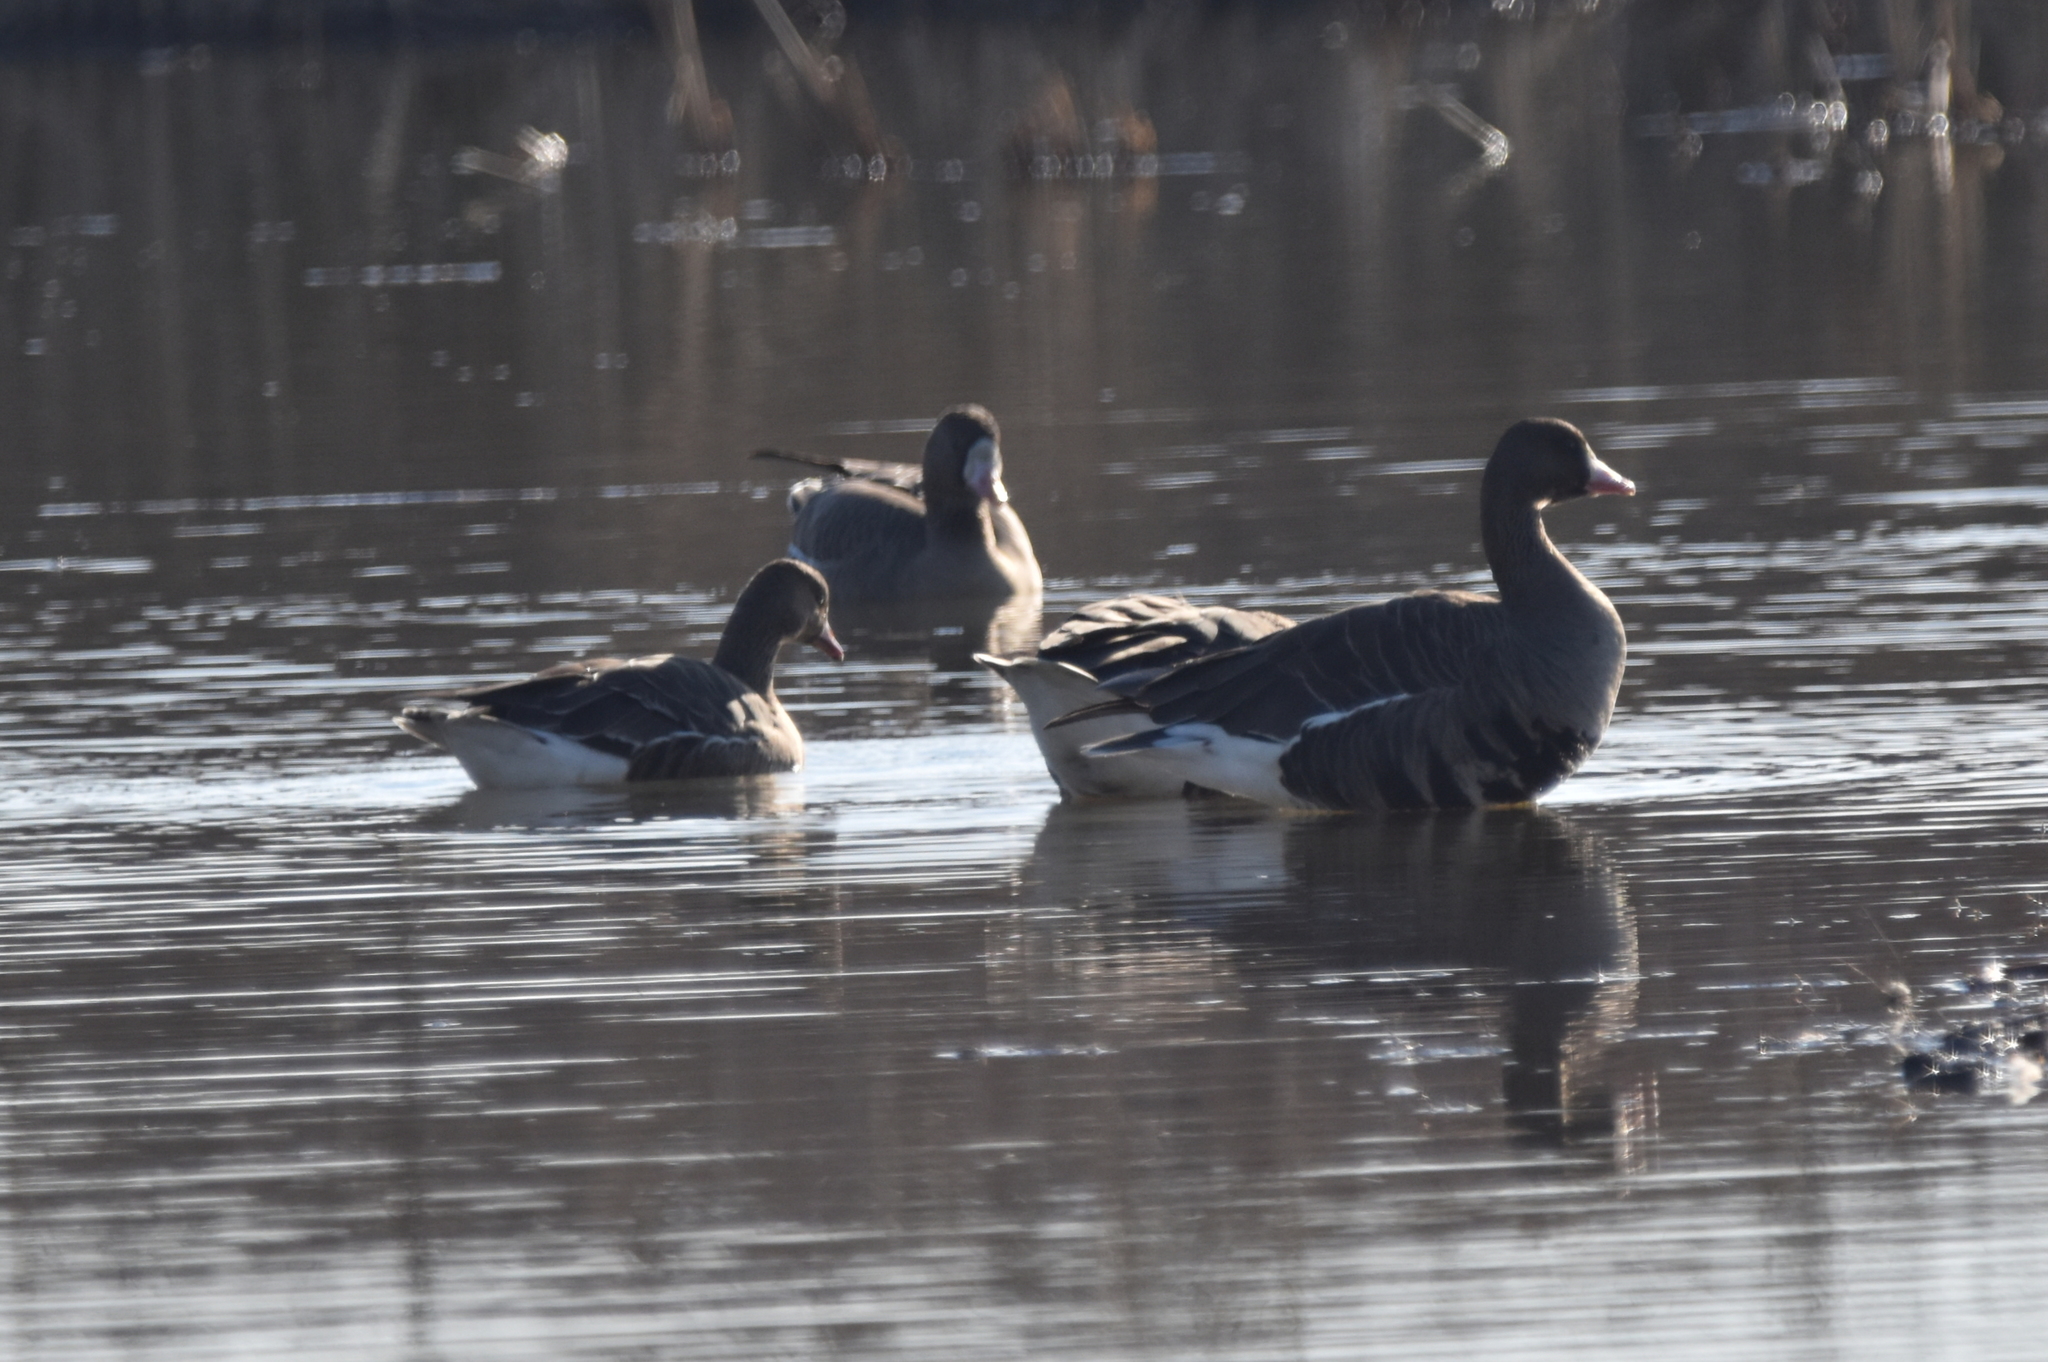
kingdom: Animalia
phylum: Chordata
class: Aves
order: Anseriformes
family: Anatidae
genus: Anser
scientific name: Anser albifrons
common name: Greater white-fronted goose
